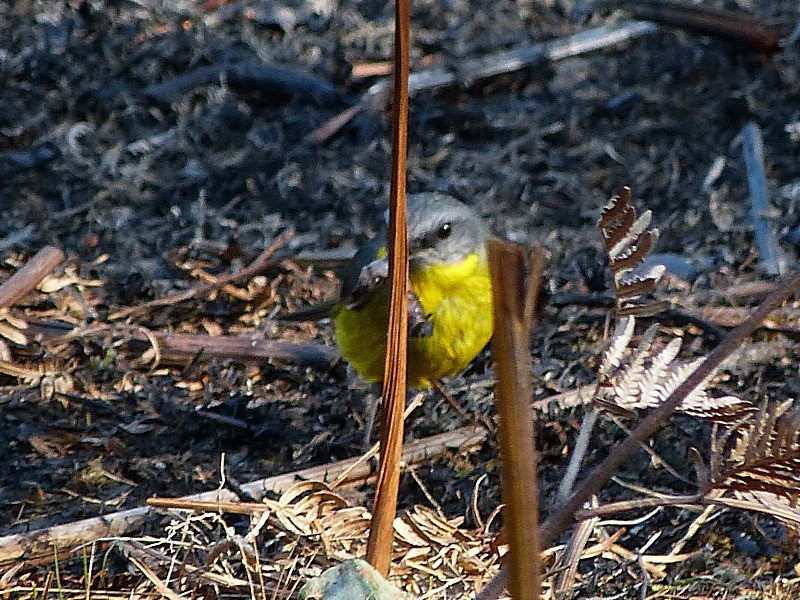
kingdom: Animalia
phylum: Chordata
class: Aves
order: Passeriformes
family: Petroicidae
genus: Eopsaltria
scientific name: Eopsaltria australis
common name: Eastern yellow robin
